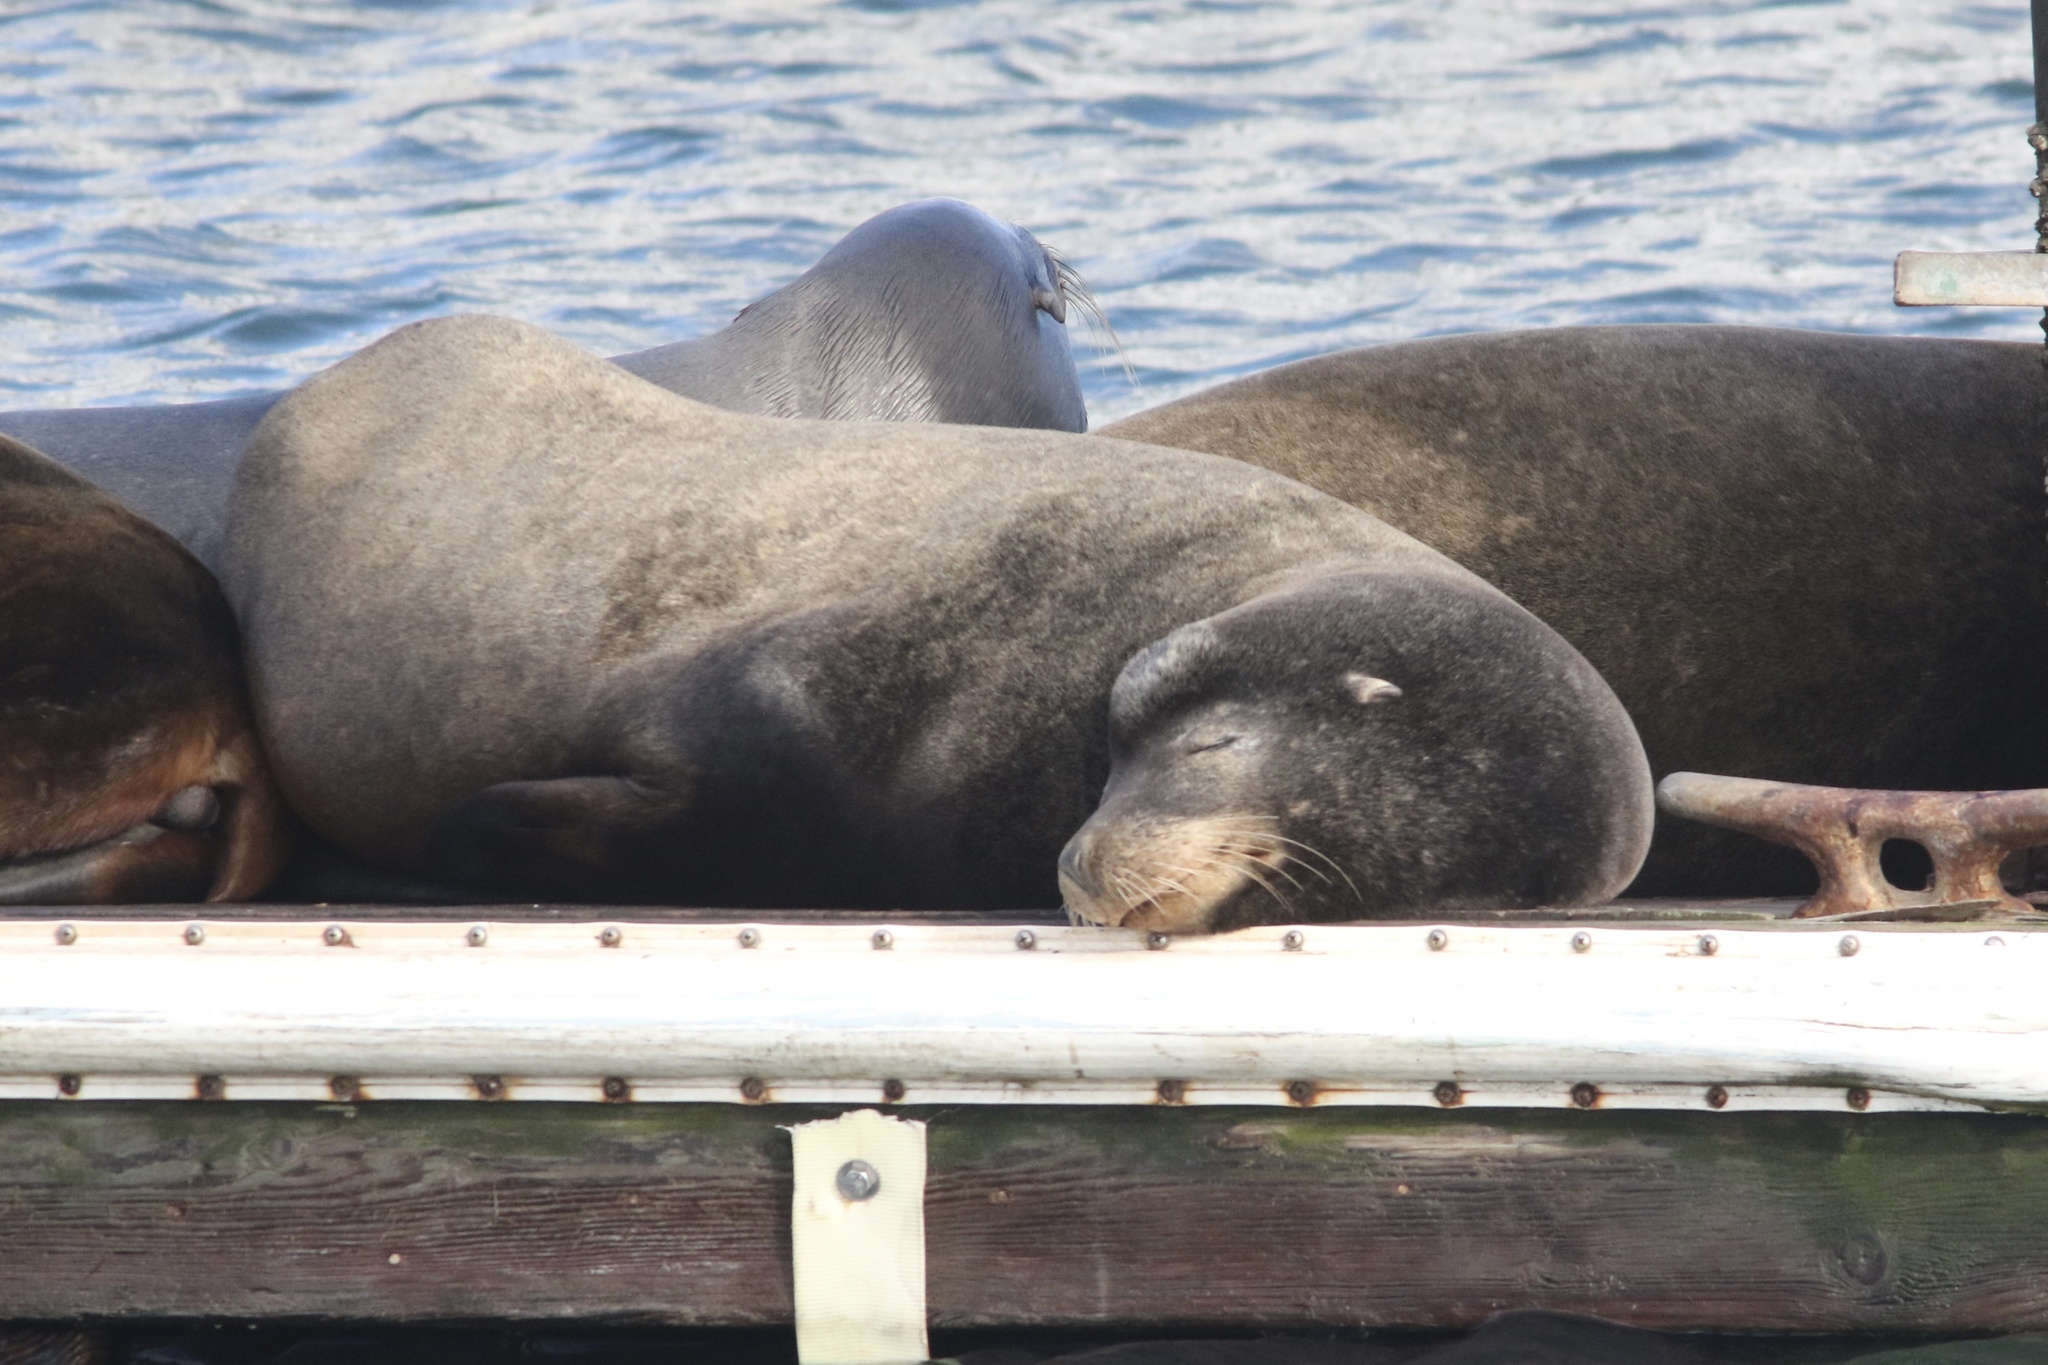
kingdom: Animalia
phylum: Chordata
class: Mammalia
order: Carnivora
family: Otariidae
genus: Zalophus
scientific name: Zalophus californianus
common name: California sea lion
